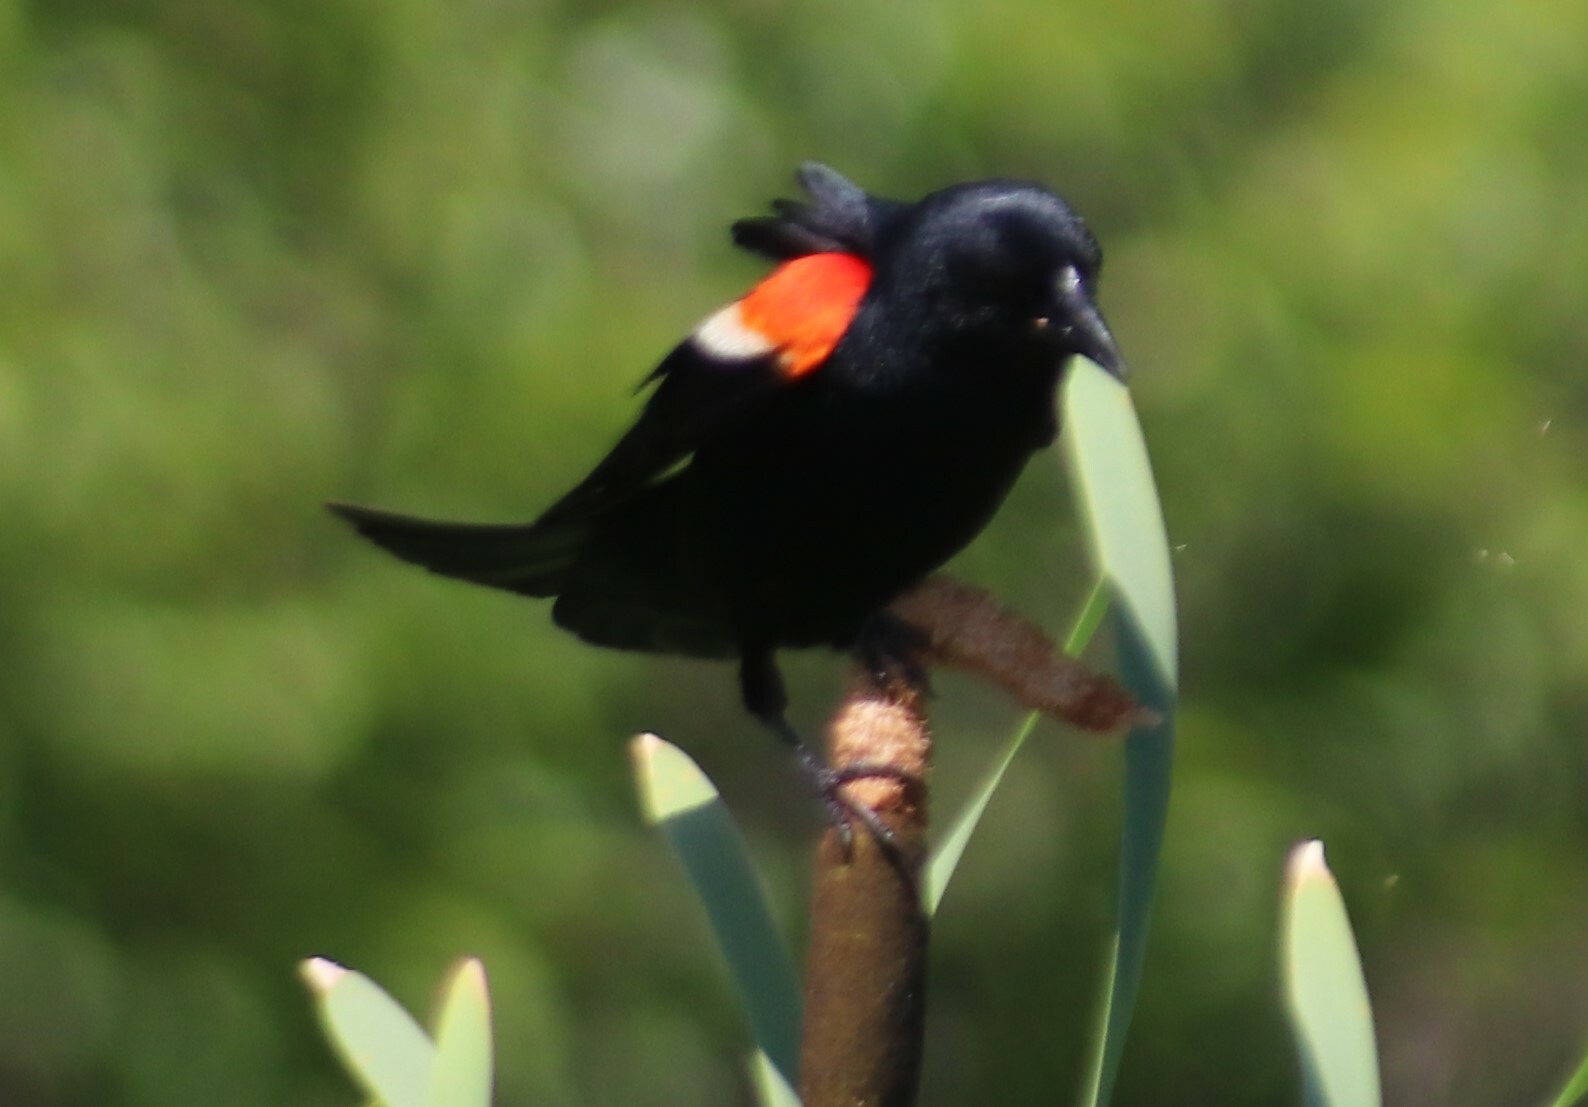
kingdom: Animalia
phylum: Chordata
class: Aves
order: Passeriformes
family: Icteridae
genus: Agelaius
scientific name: Agelaius phoeniceus
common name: Red-winged blackbird
